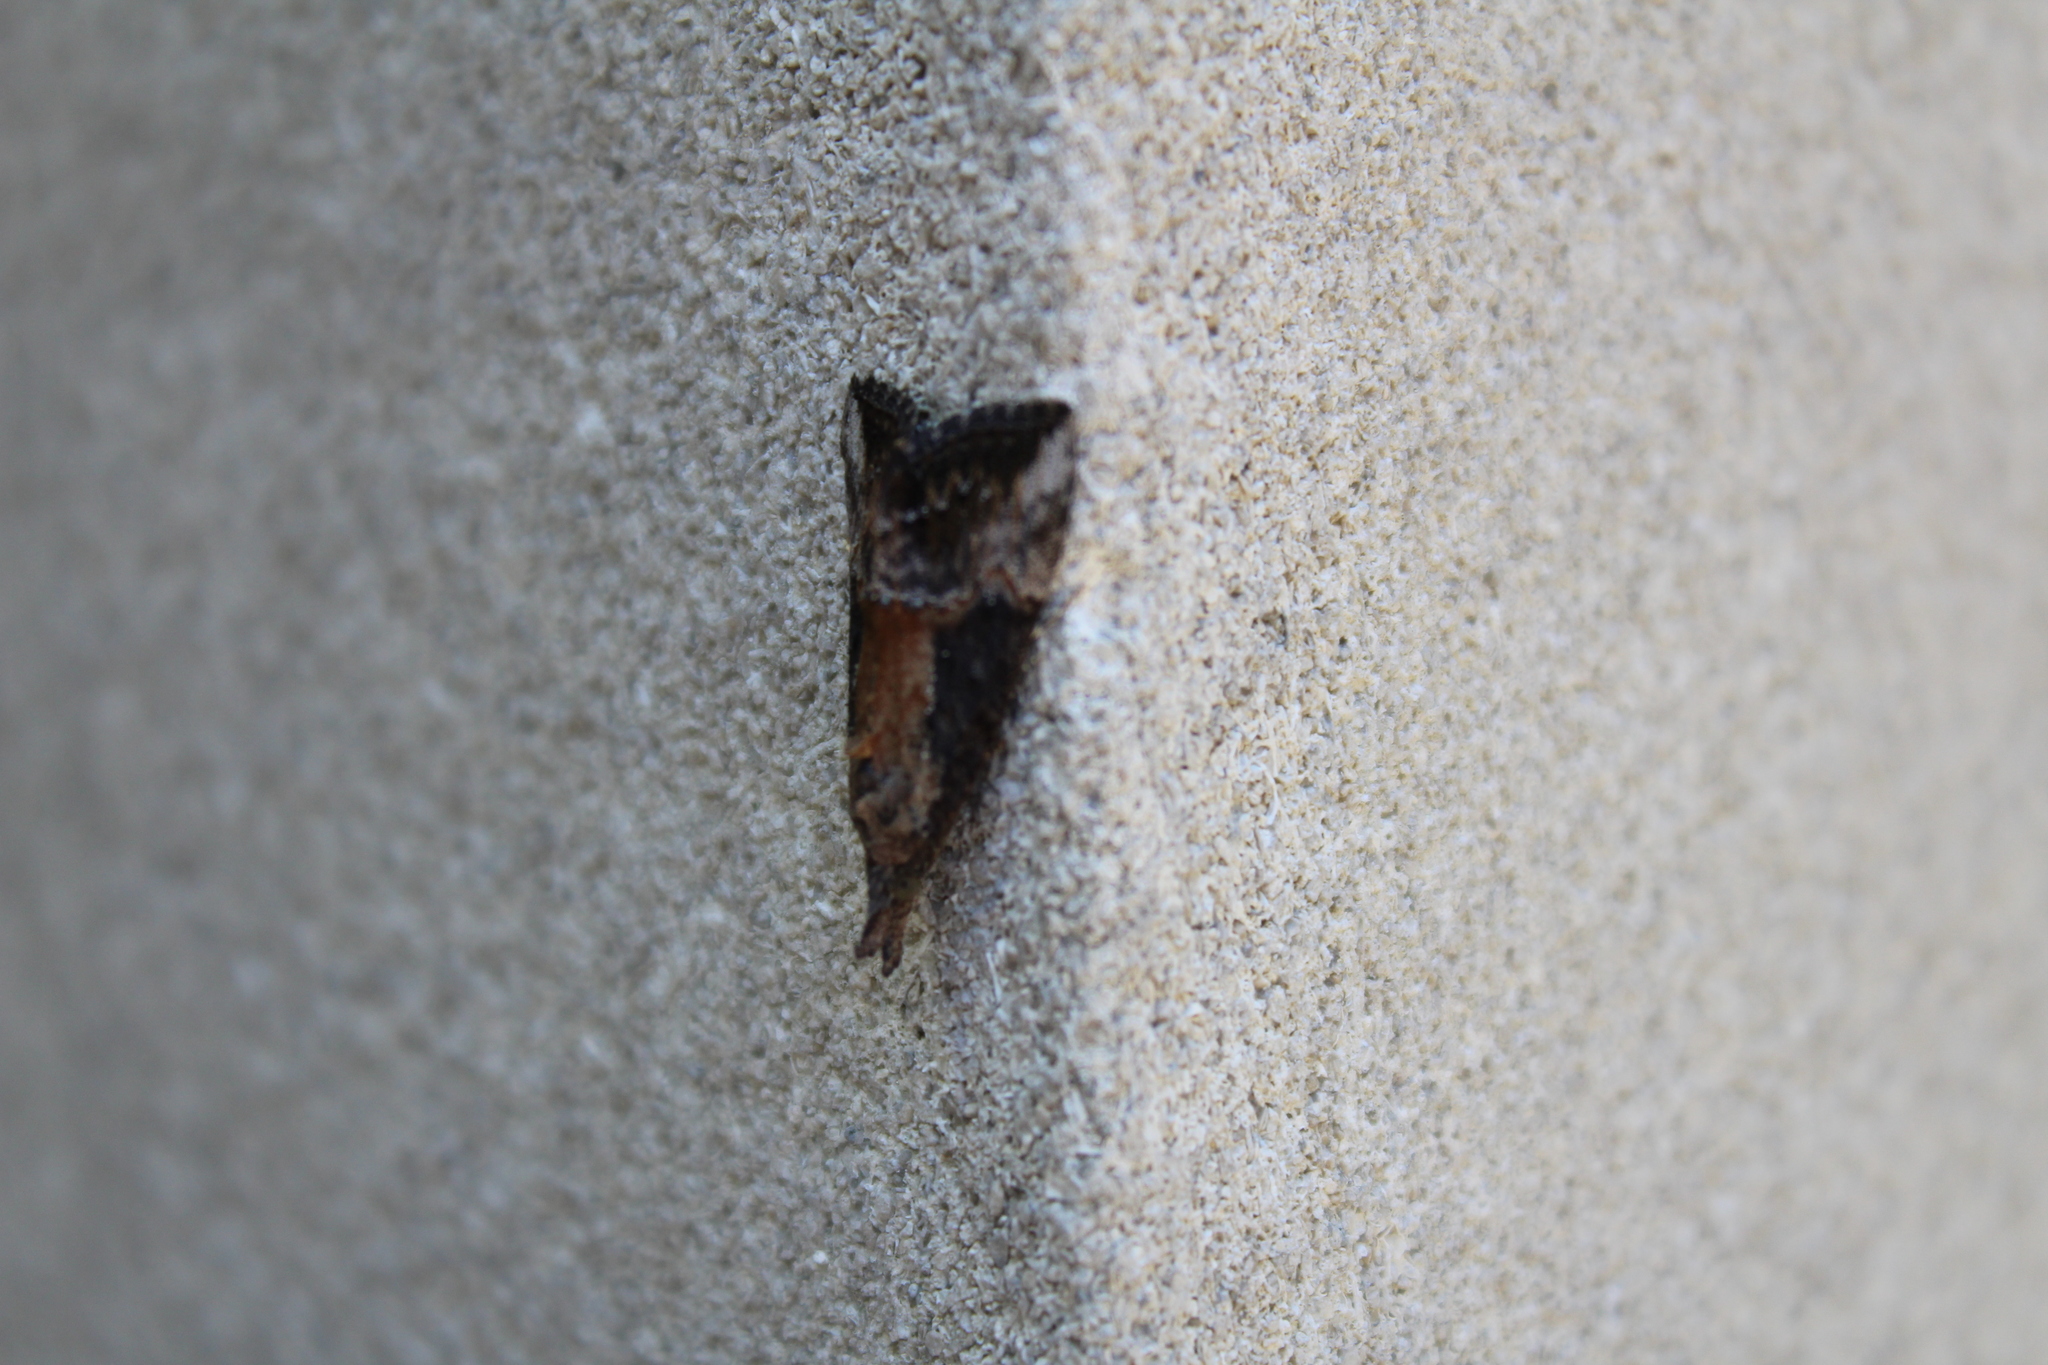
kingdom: Animalia
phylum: Arthropoda
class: Insecta
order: Lepidoptera
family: Erebidae
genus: Hypena
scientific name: Hypena scabra
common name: Green cloverworm
